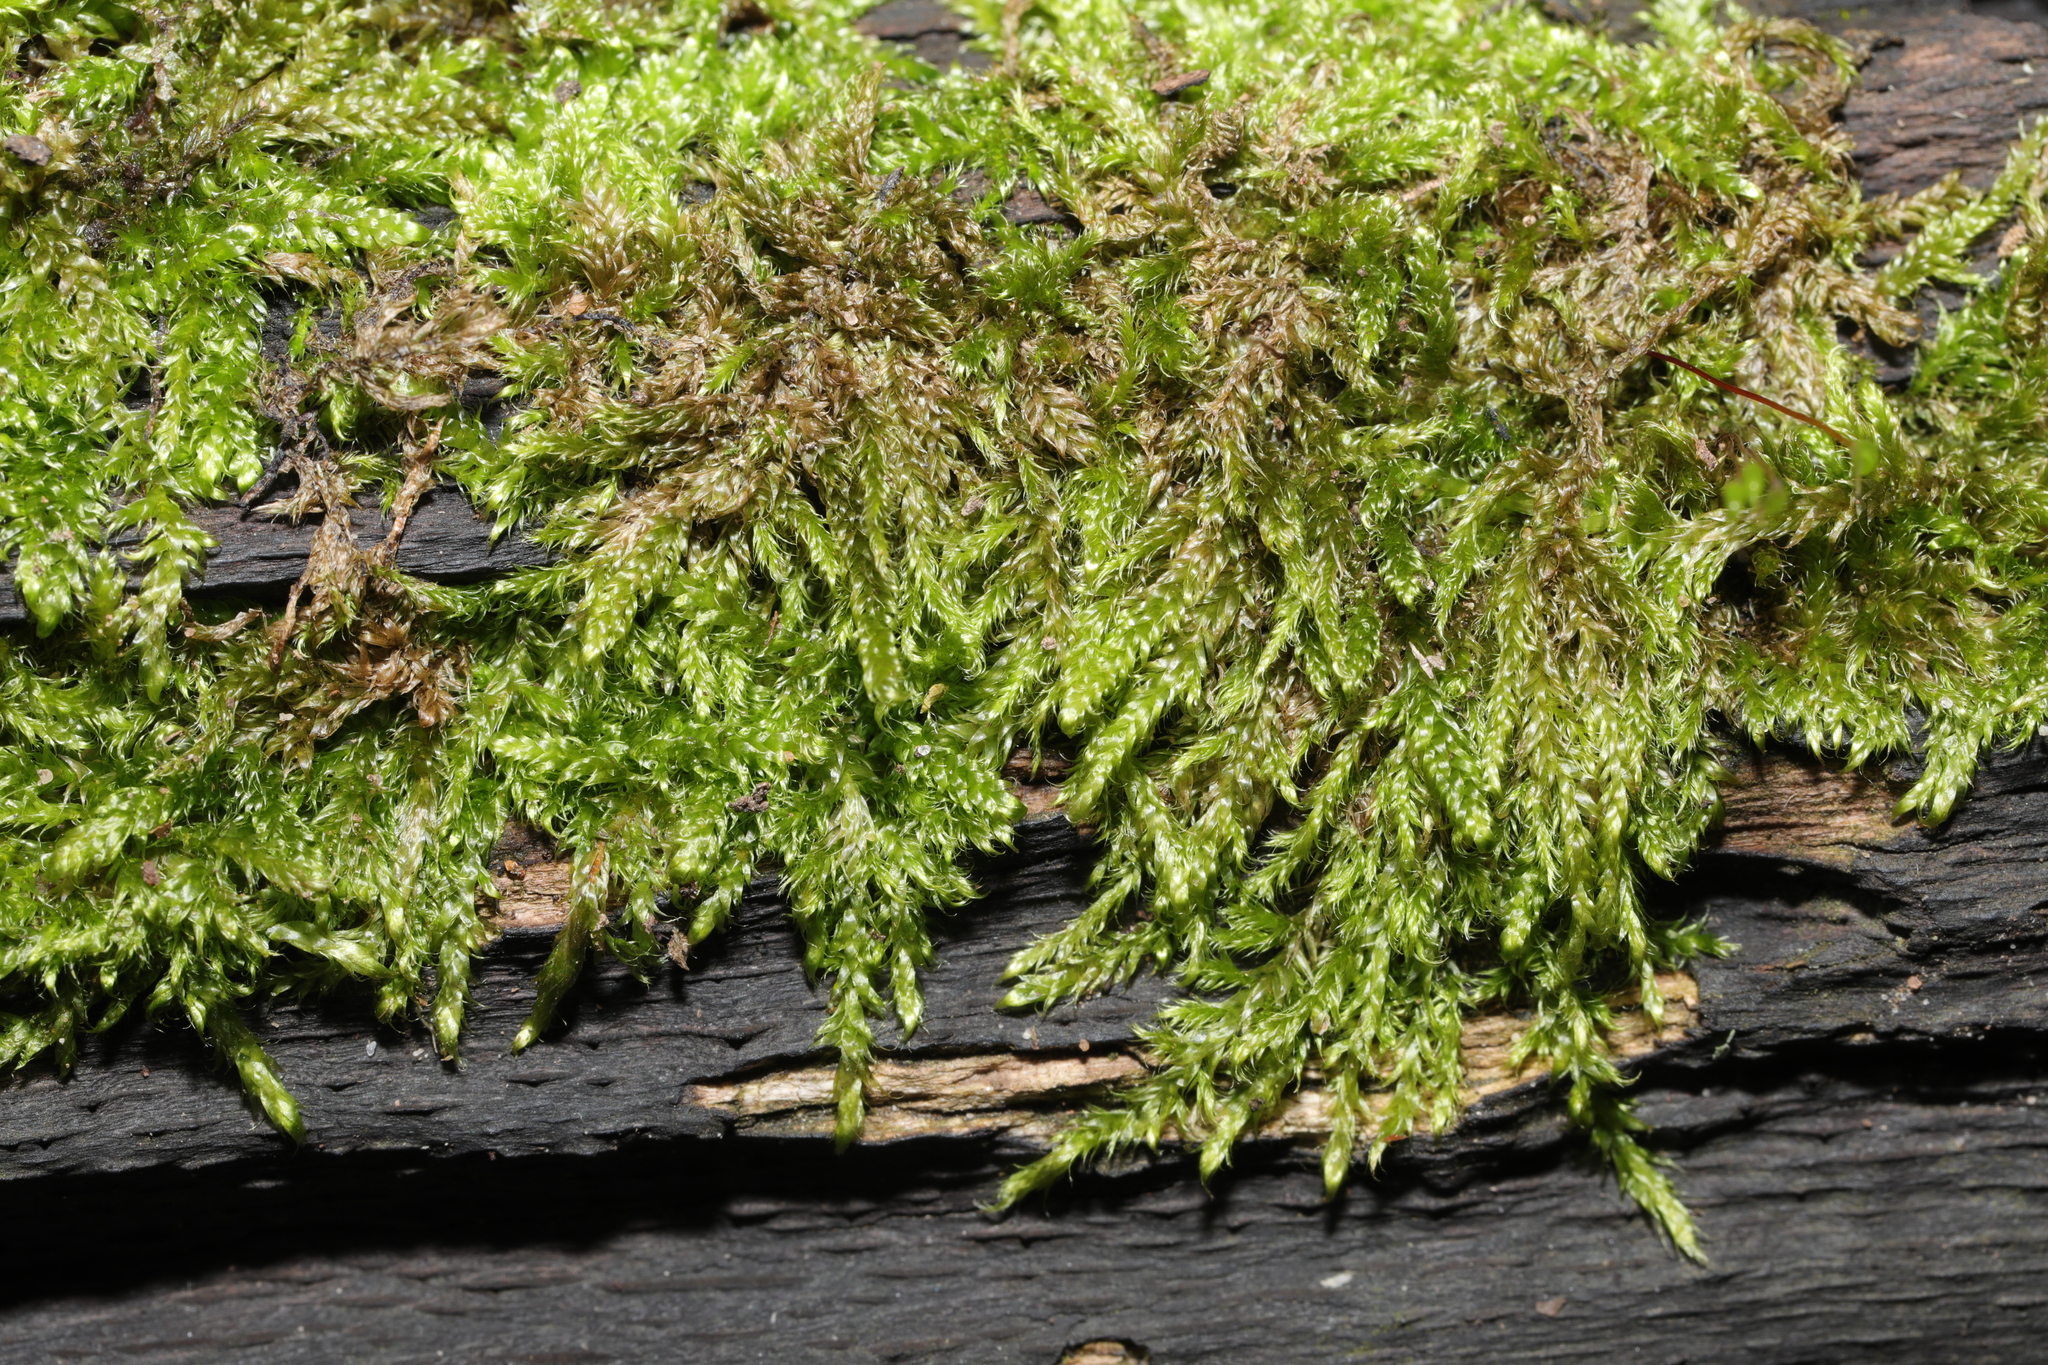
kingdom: Plantae
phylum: Bryophyta
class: Bryopsida
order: Hypnales
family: Hypnaceae
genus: Hypnum
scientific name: Hypnum cupressiforme
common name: Cypress-leaved plait-moss
